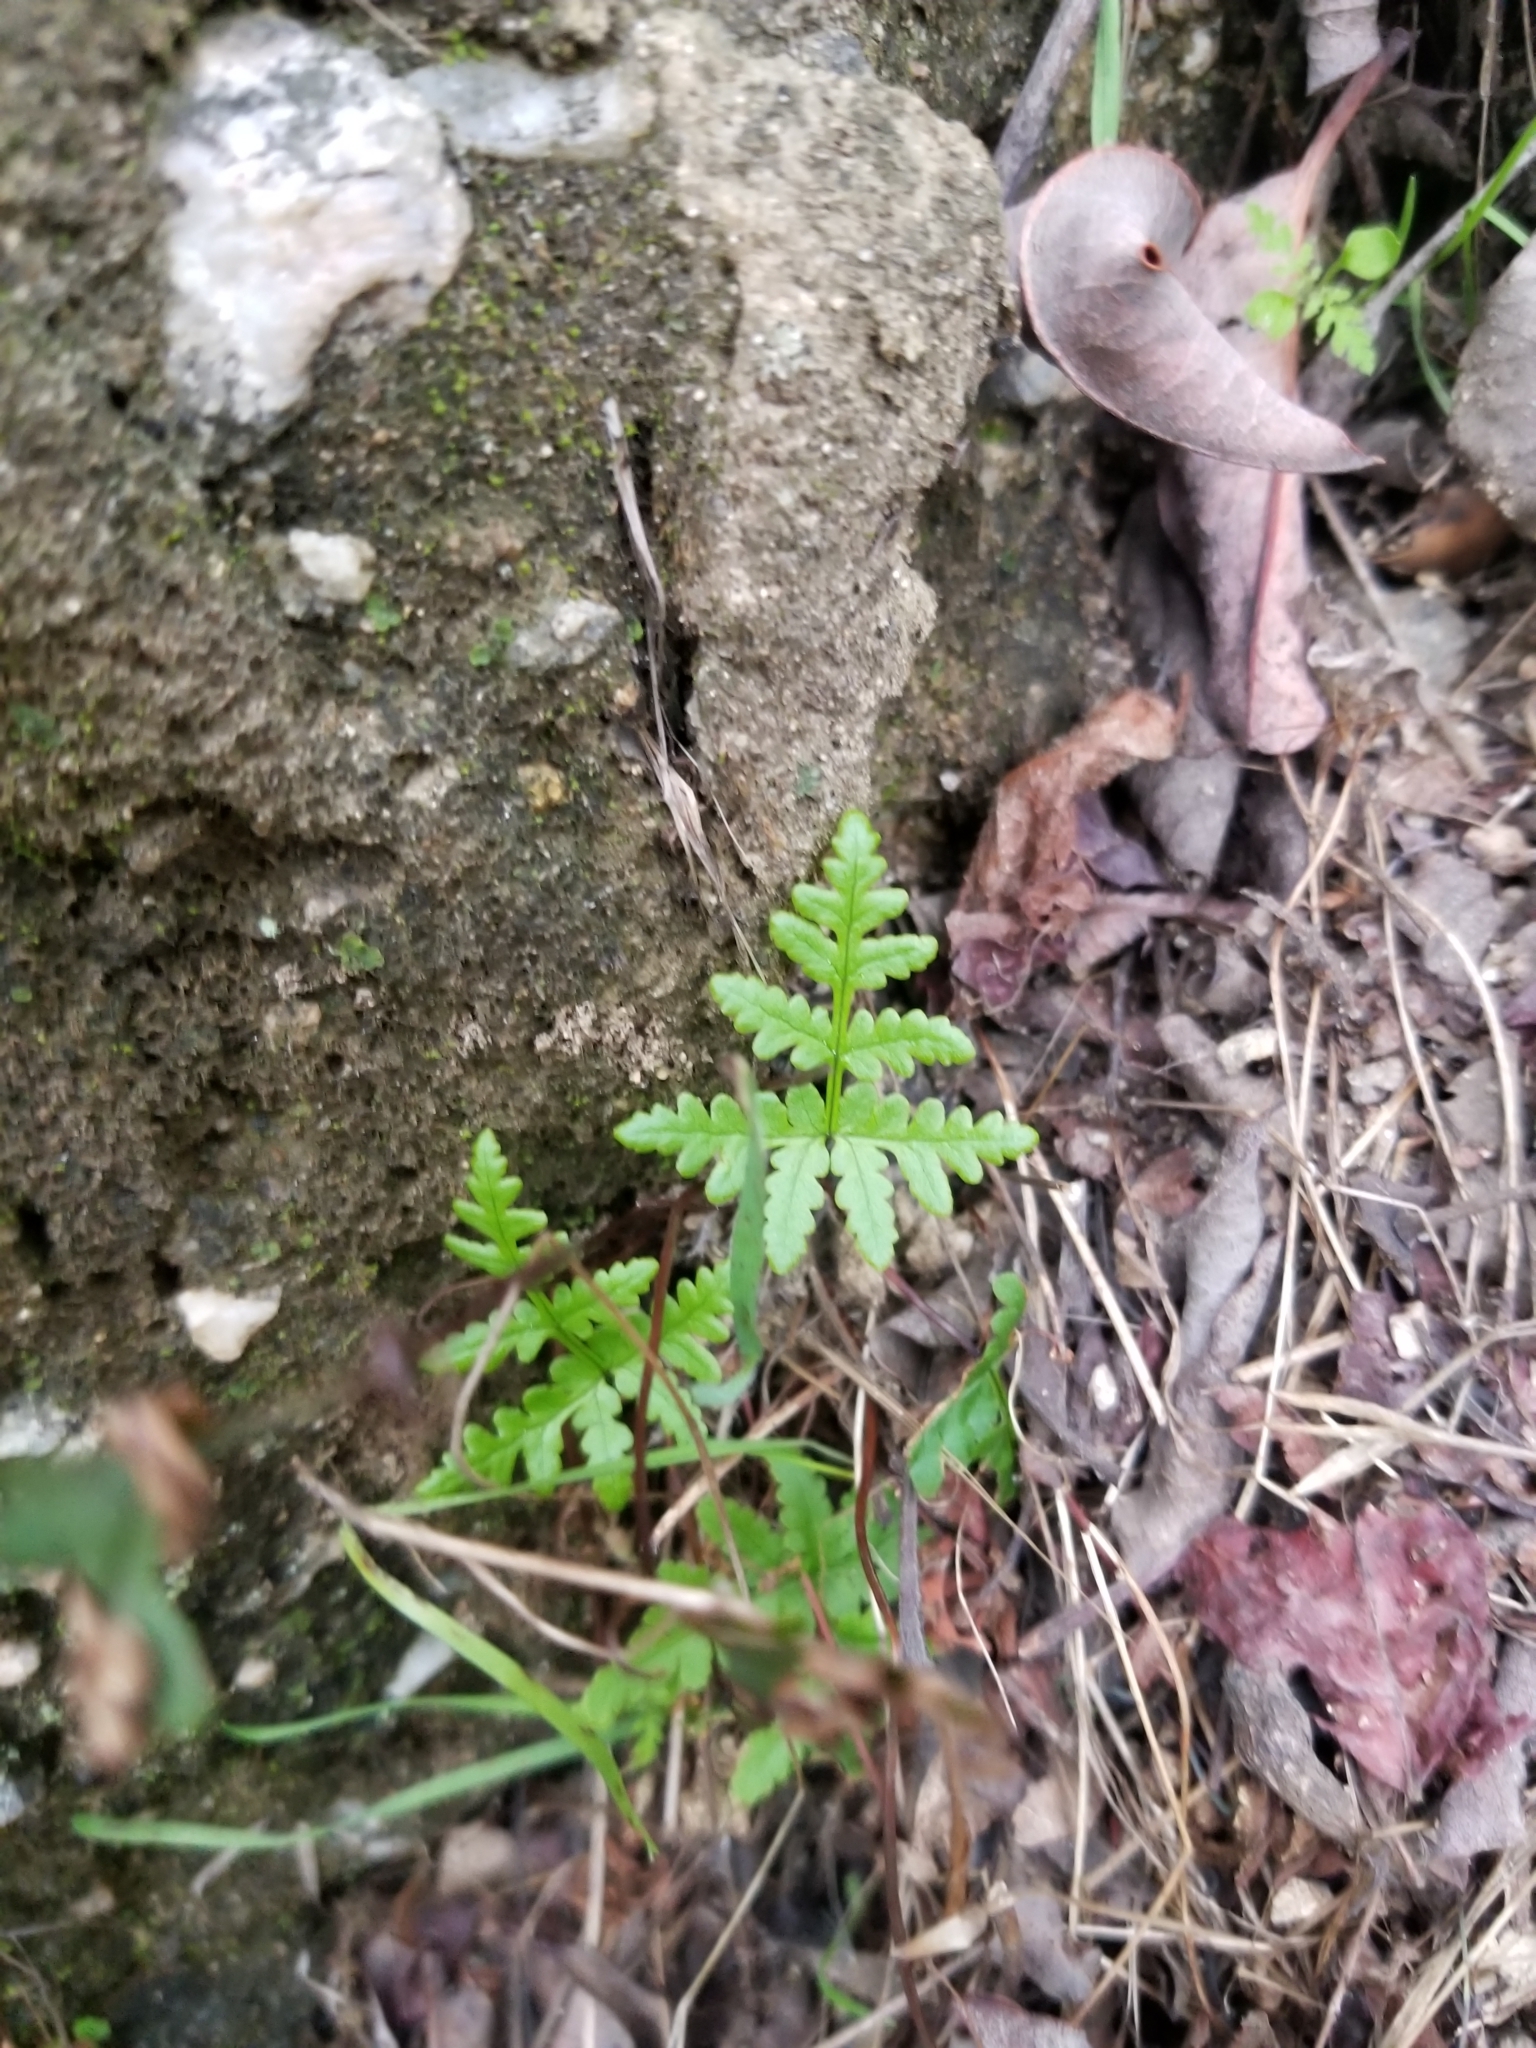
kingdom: Plantae
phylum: Tracheophyta
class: Polypodiopsida
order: Polypodiales
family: Pteridaceae
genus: Pentagramma
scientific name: Pentagramma triangularis
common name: Gold fern
